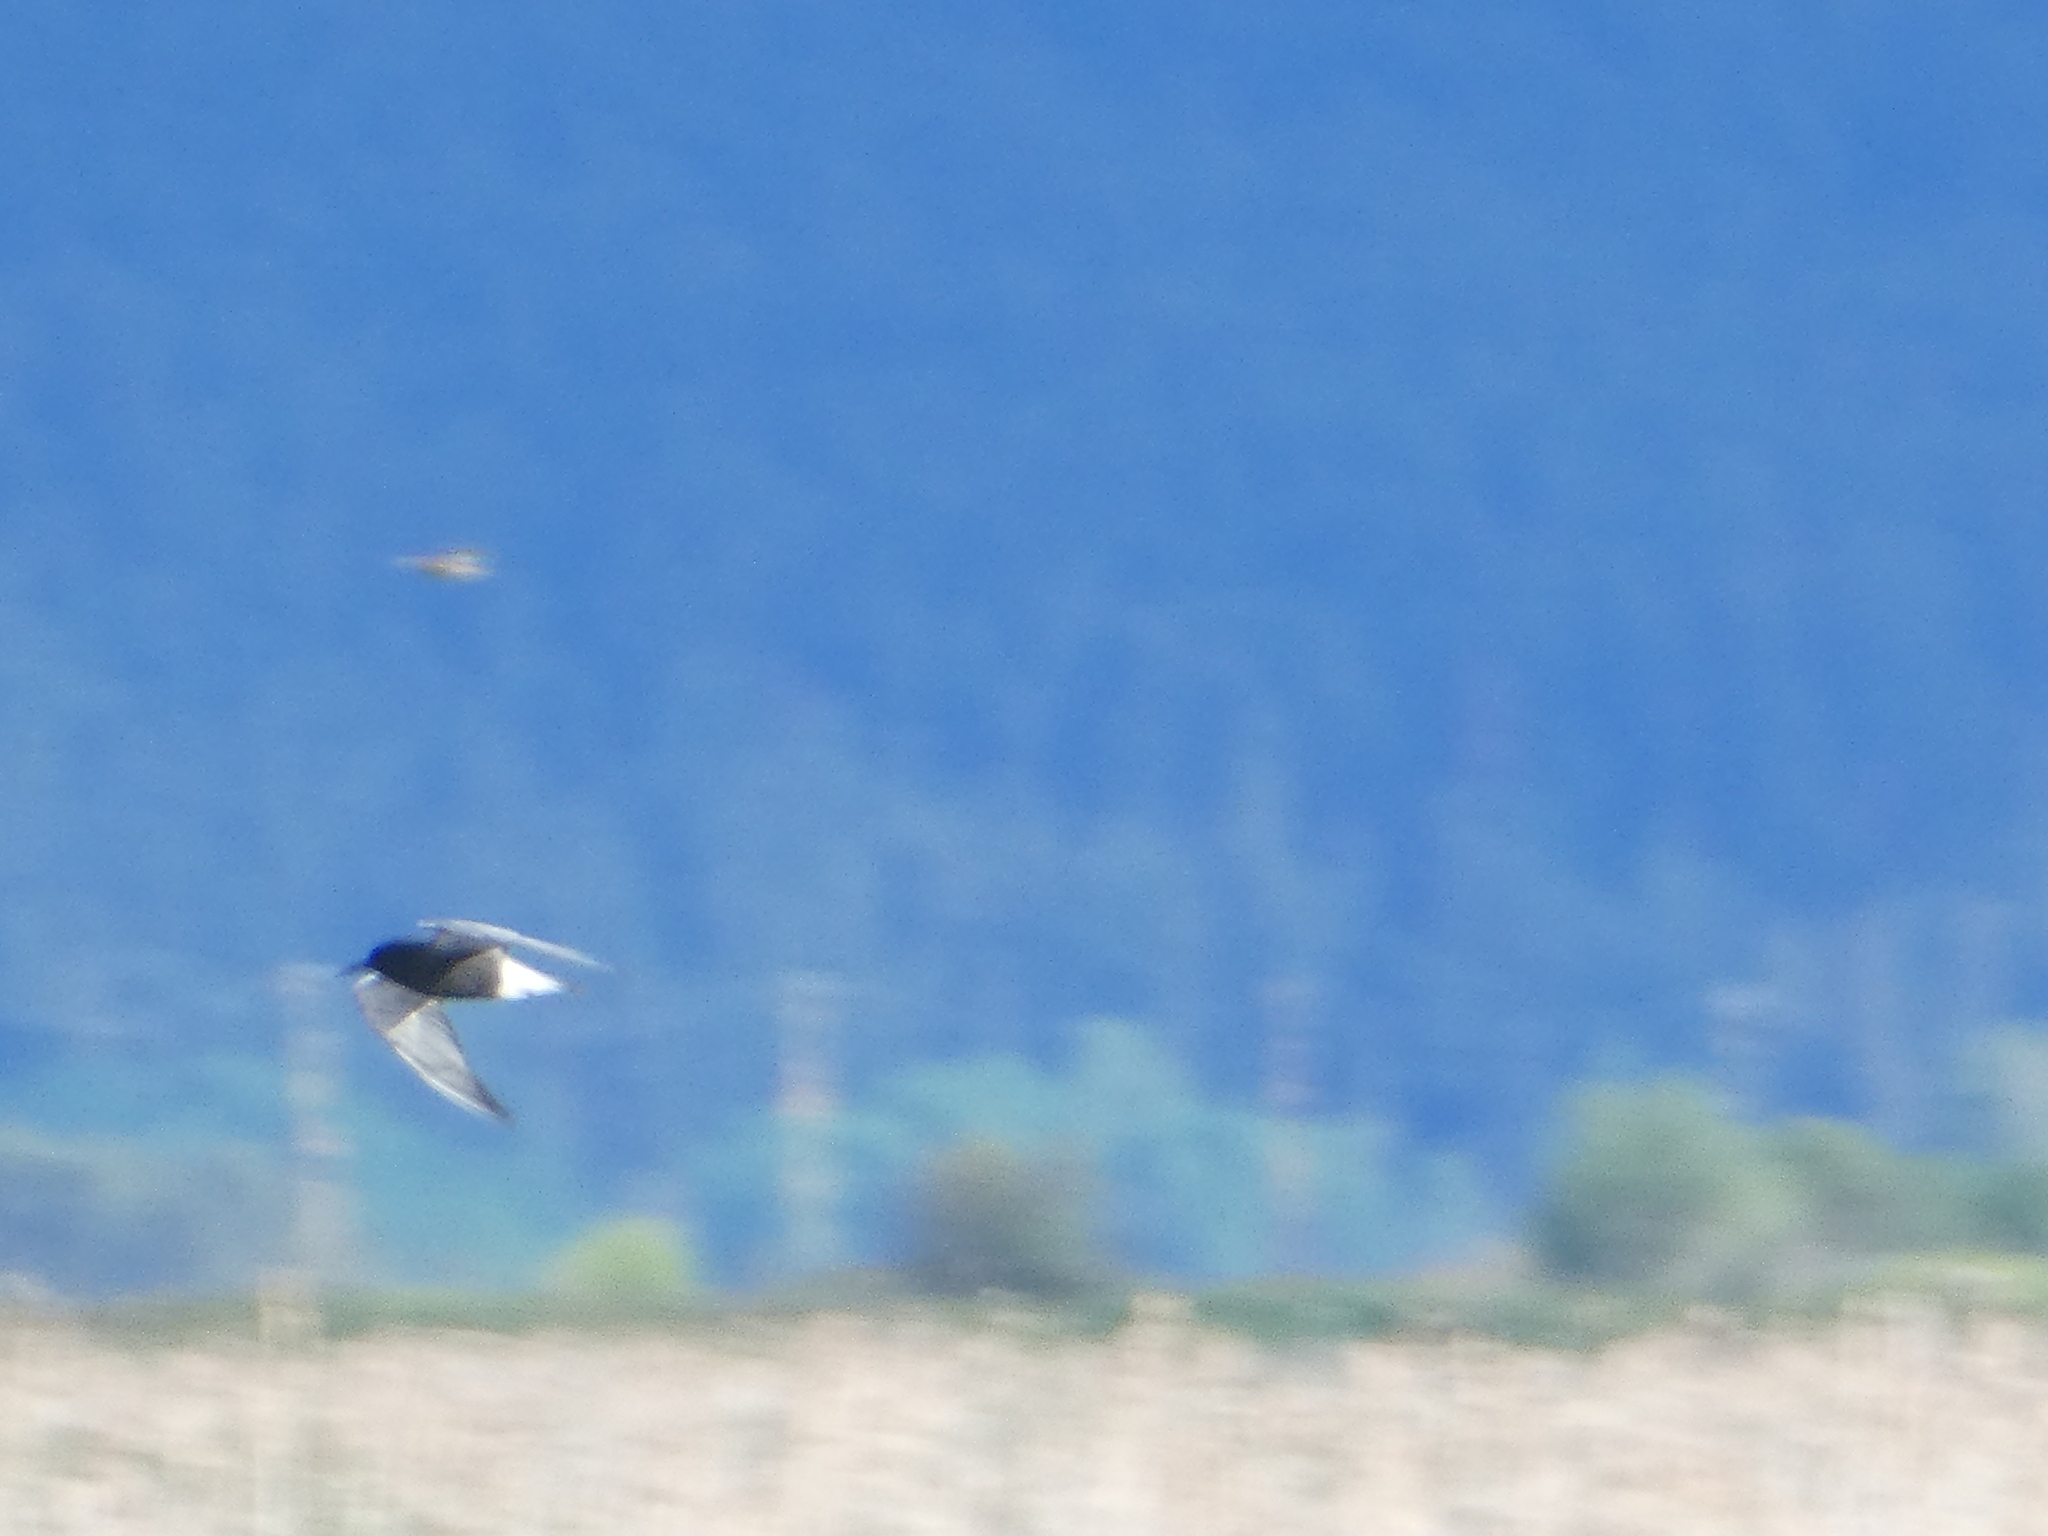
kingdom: Animalia
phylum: Chordata
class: Aves
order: Charadriiformes
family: Laridae
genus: Chlidonias
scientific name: Chlidonias niger
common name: Black tern
